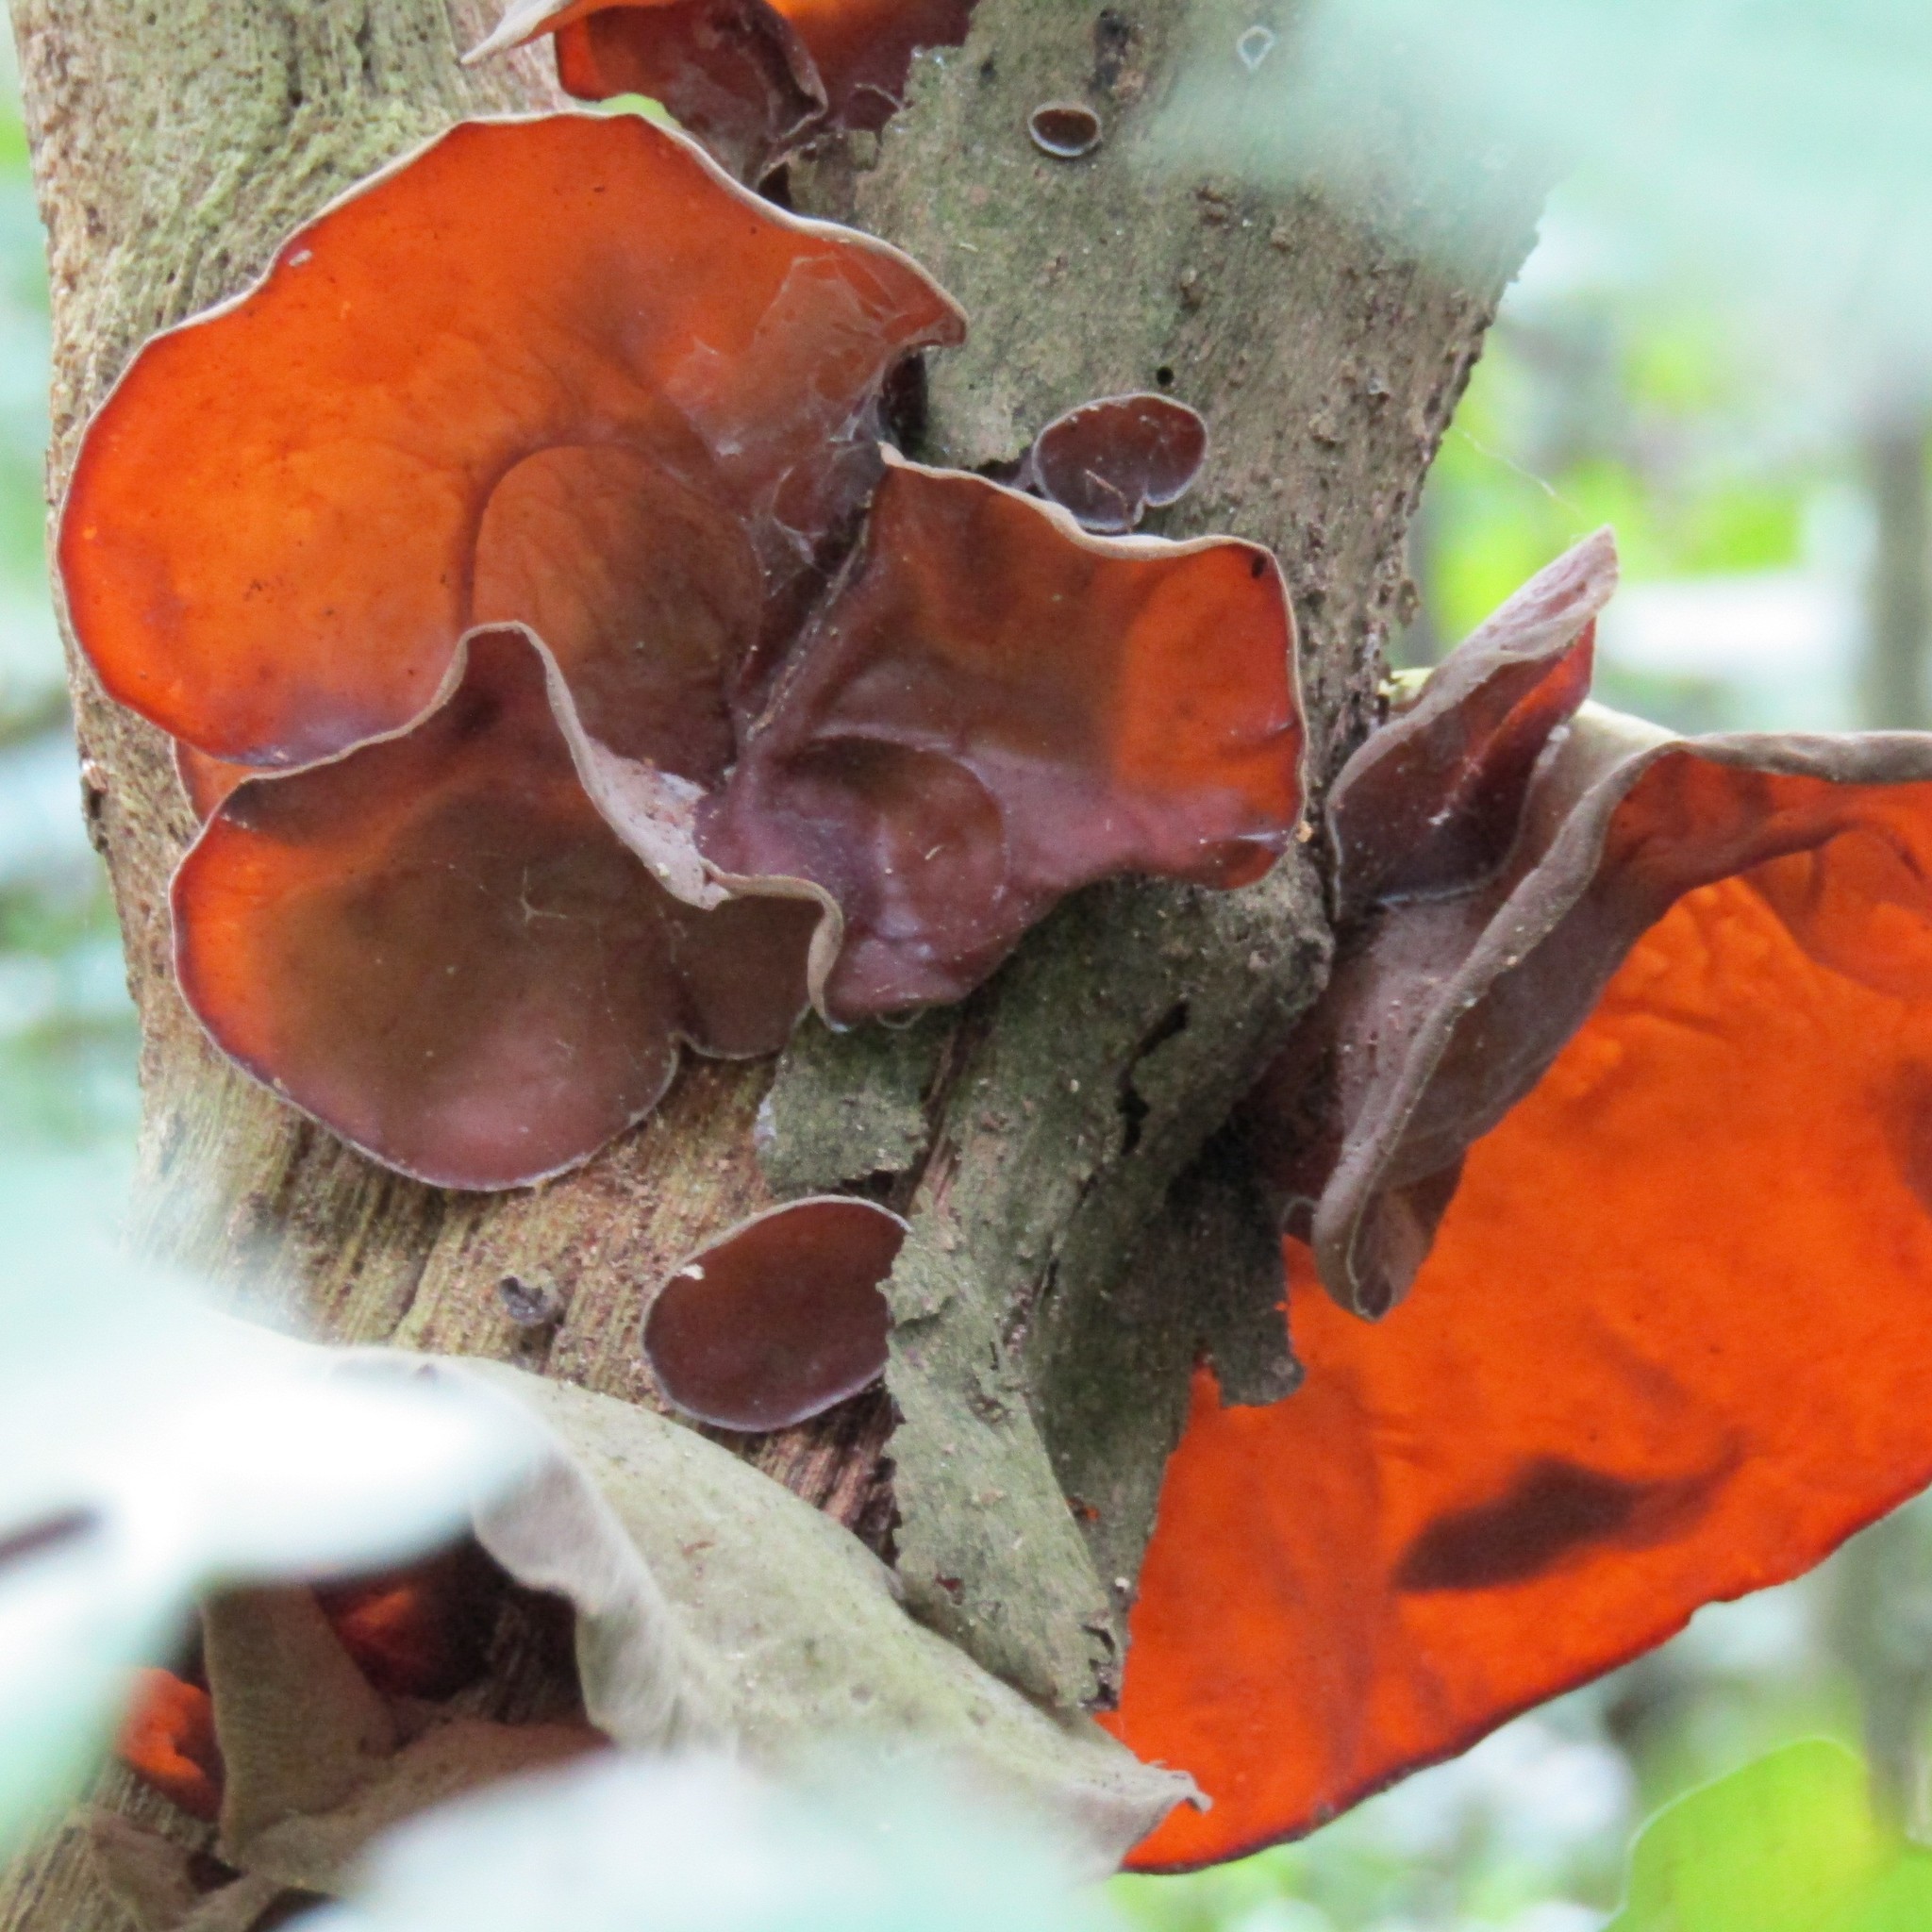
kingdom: Fungi
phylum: Basidiomycota
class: Agaricomycetes
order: Auriculariales
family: Auriculariaceae
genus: Auricularia
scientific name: Auricularia cornea
